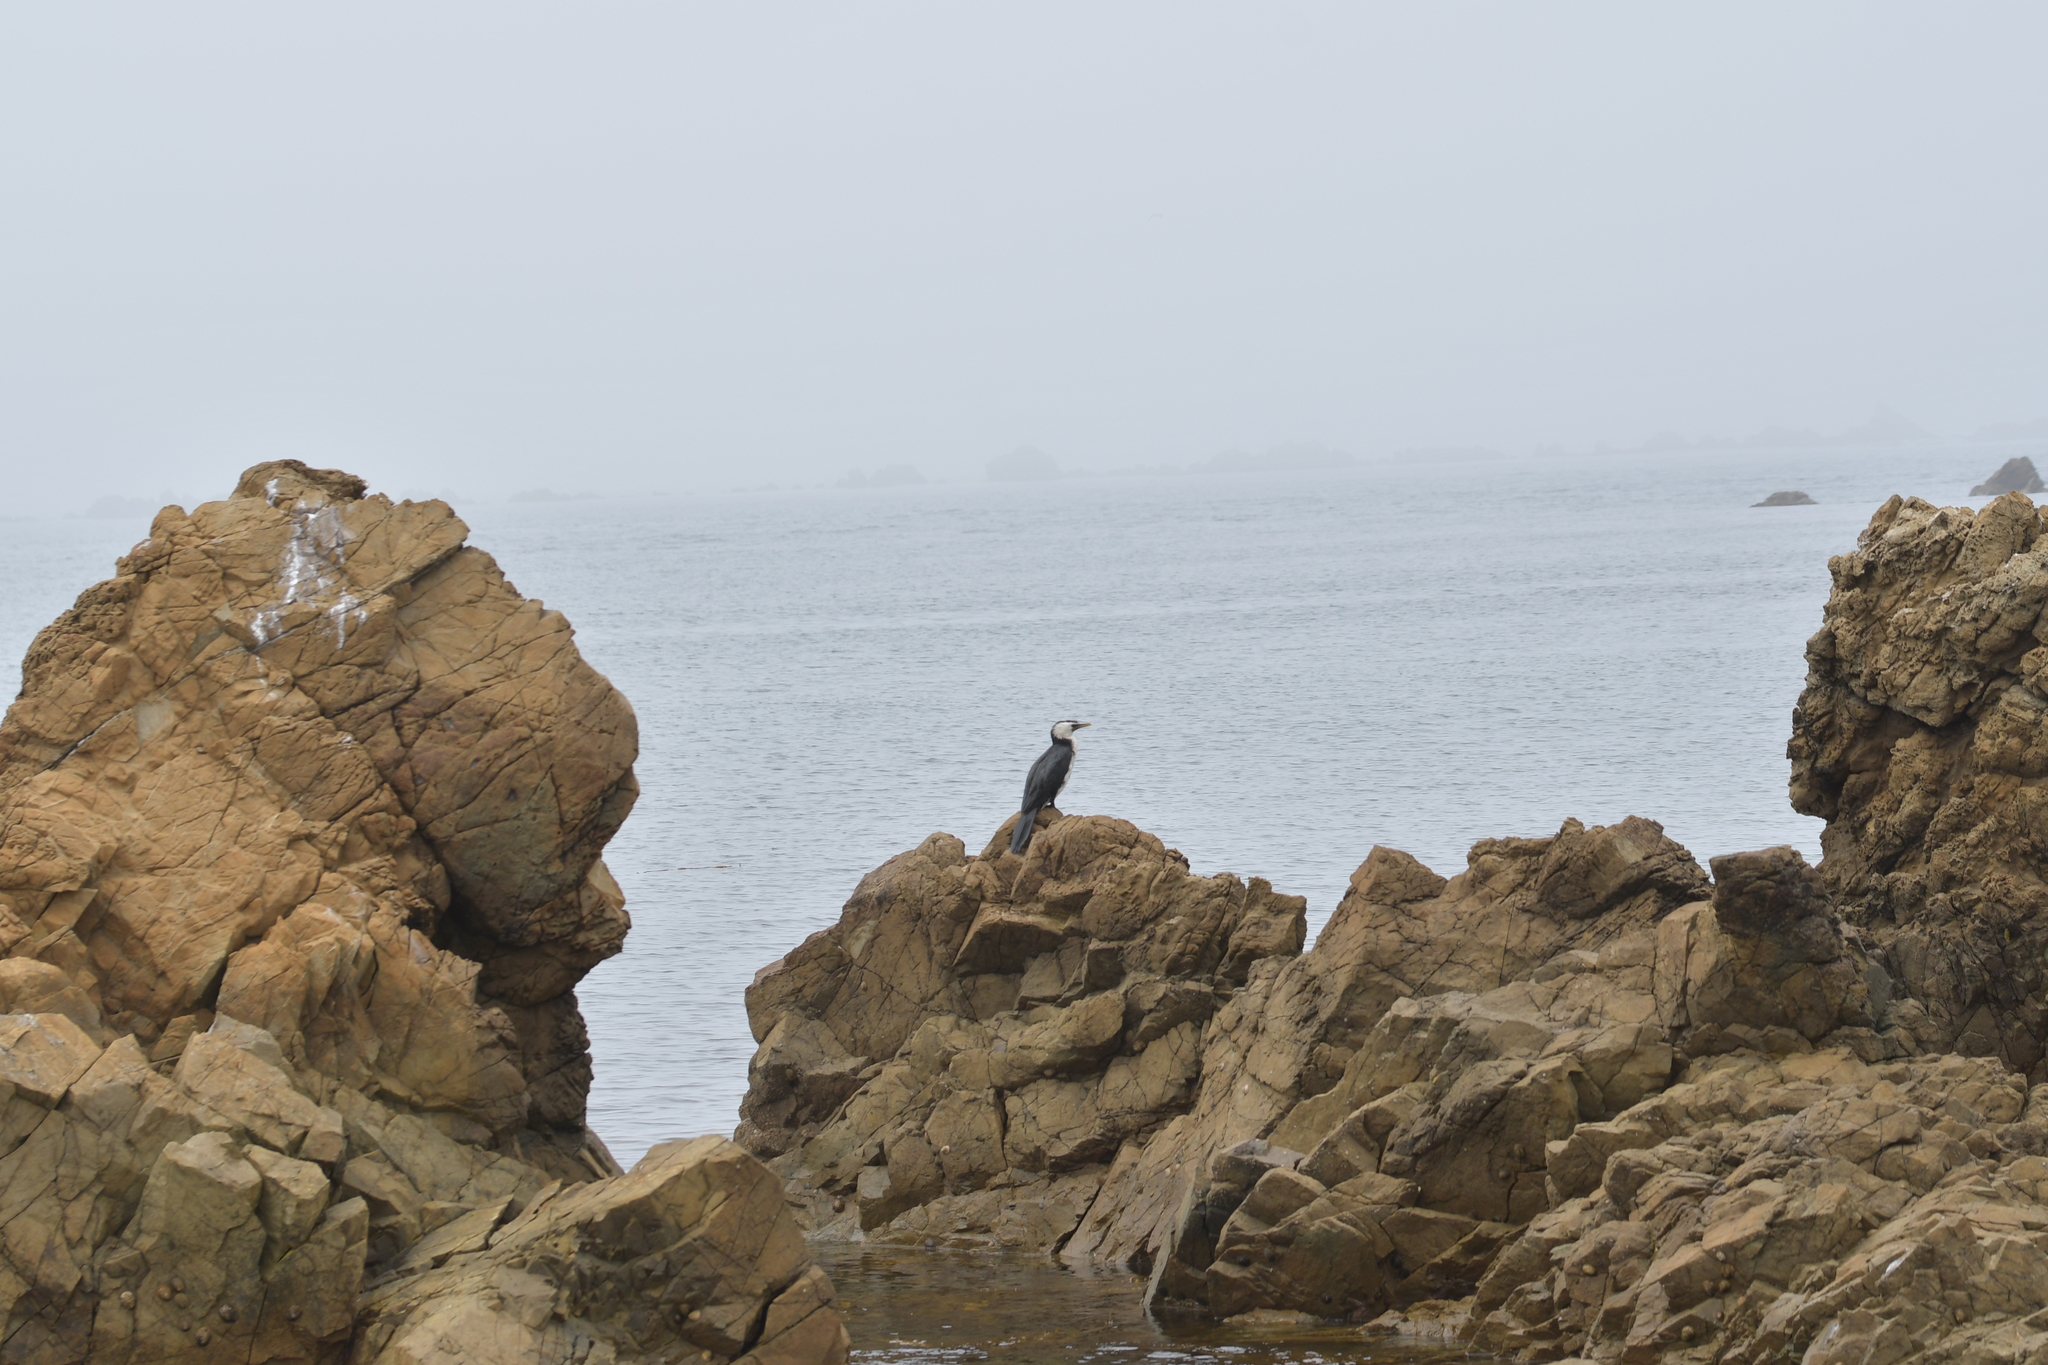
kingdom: Animalia
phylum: Chordata
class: Aves
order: Suliformes
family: Phalacrocoracidae
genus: Microcarbo
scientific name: Microcarbo melanoleucos
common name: Little pied cormorant
